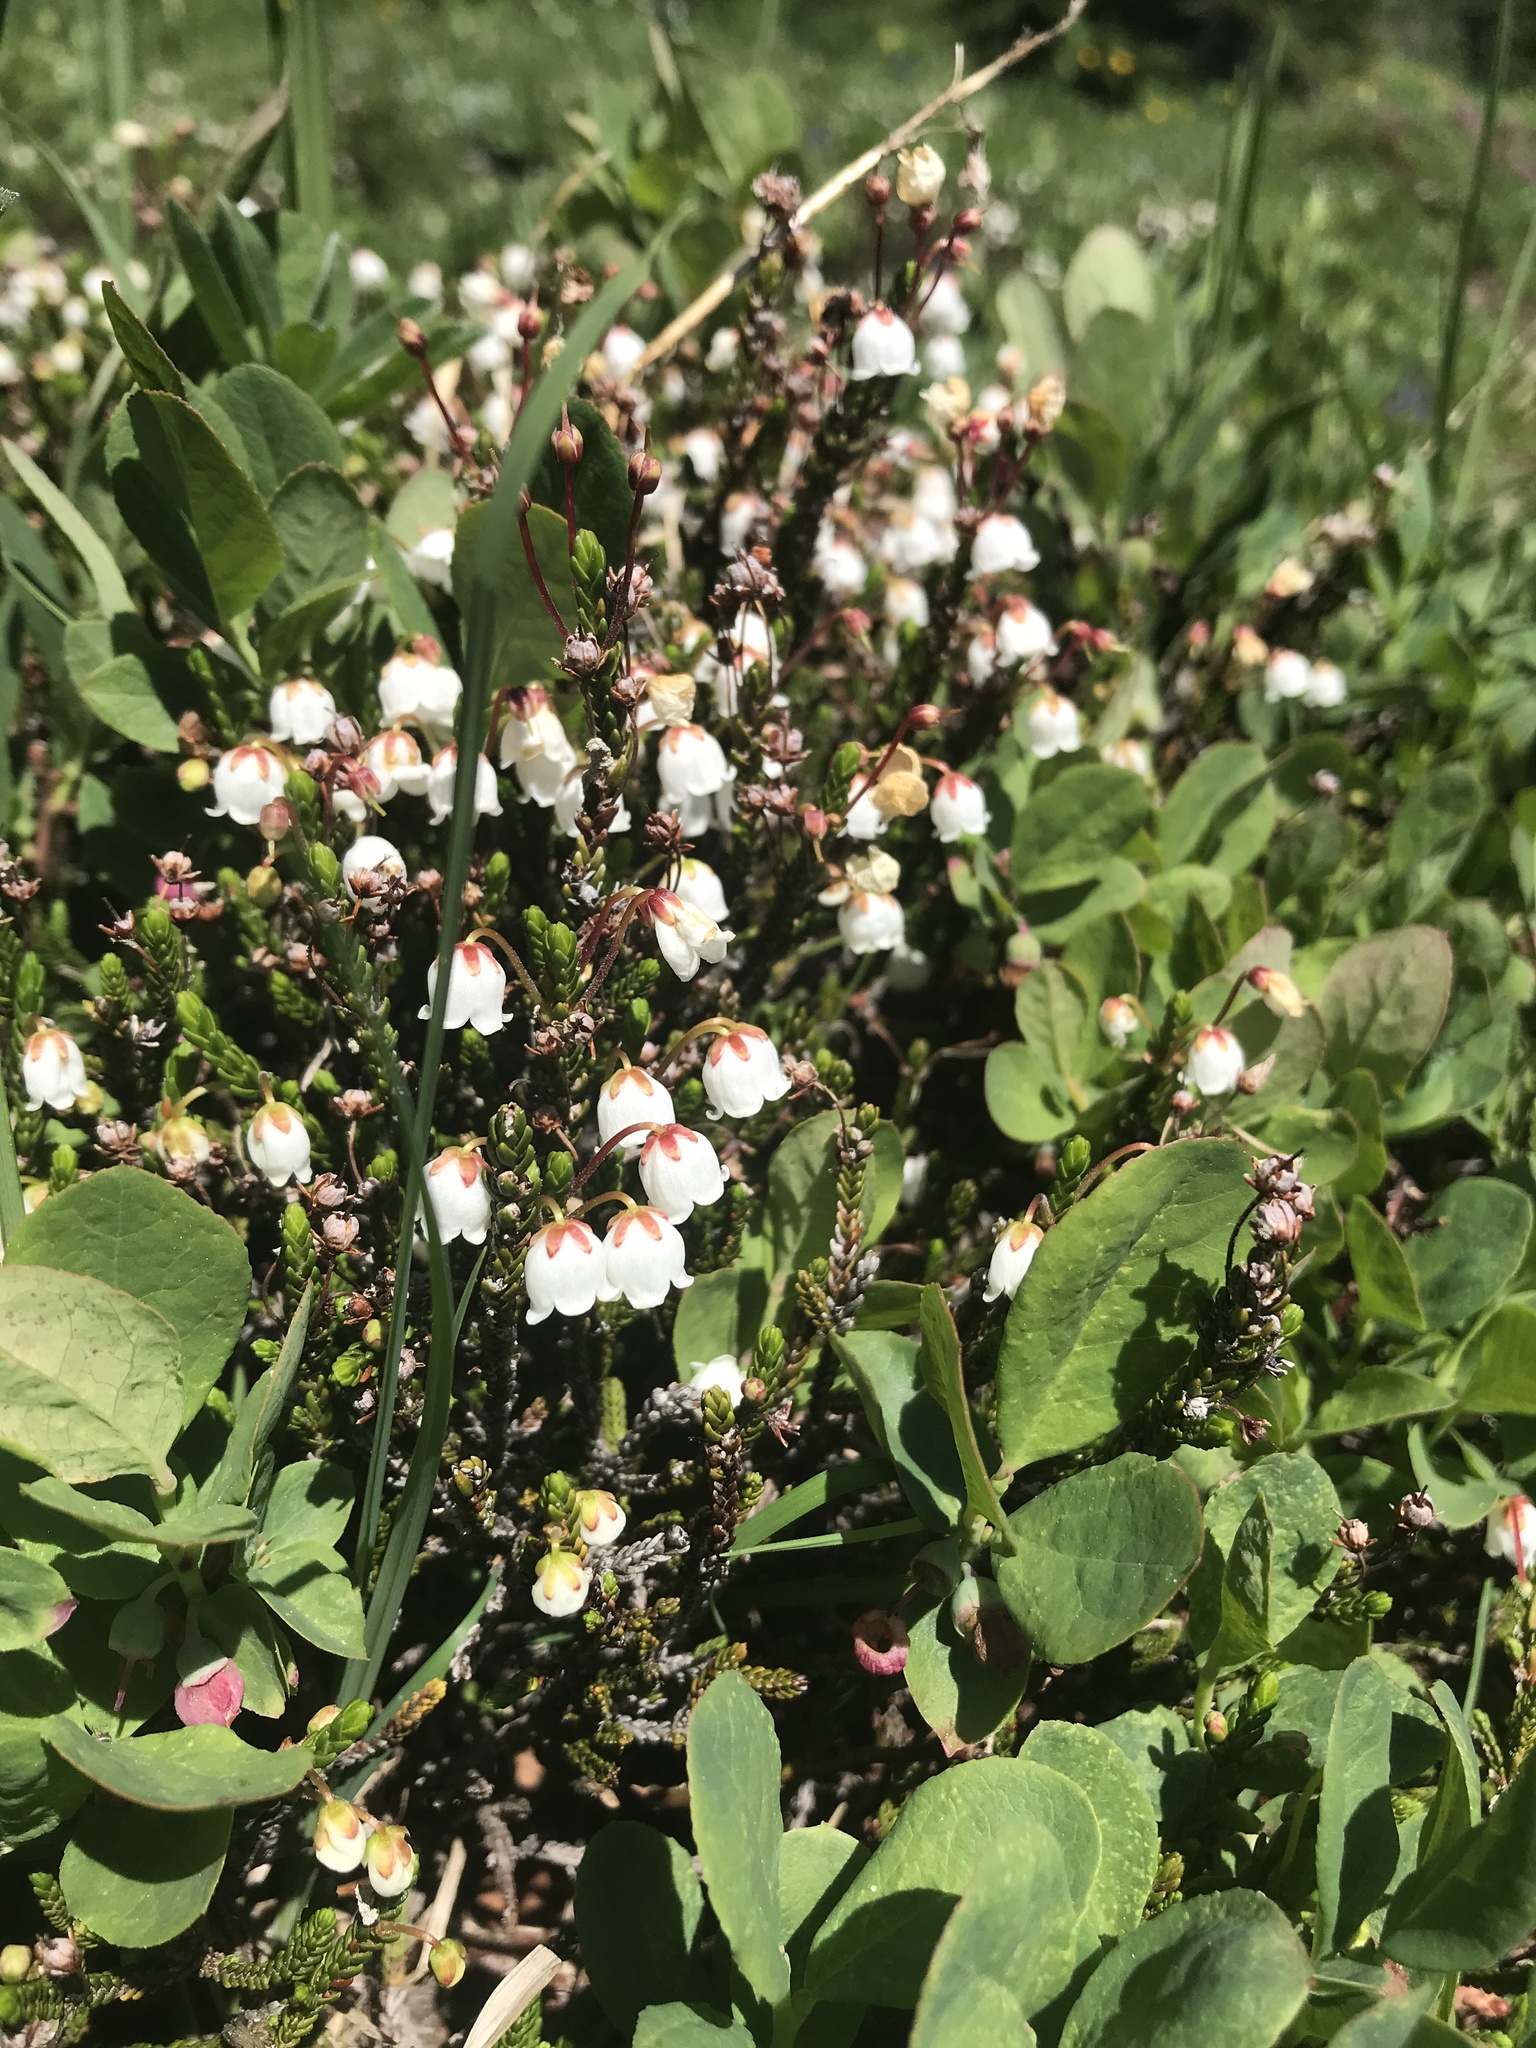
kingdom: Plantae
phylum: Tracheophyta
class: Magnoliopsida
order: Ericales
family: Ericaceae
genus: Cassiope
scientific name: Cassiope mertensiana
